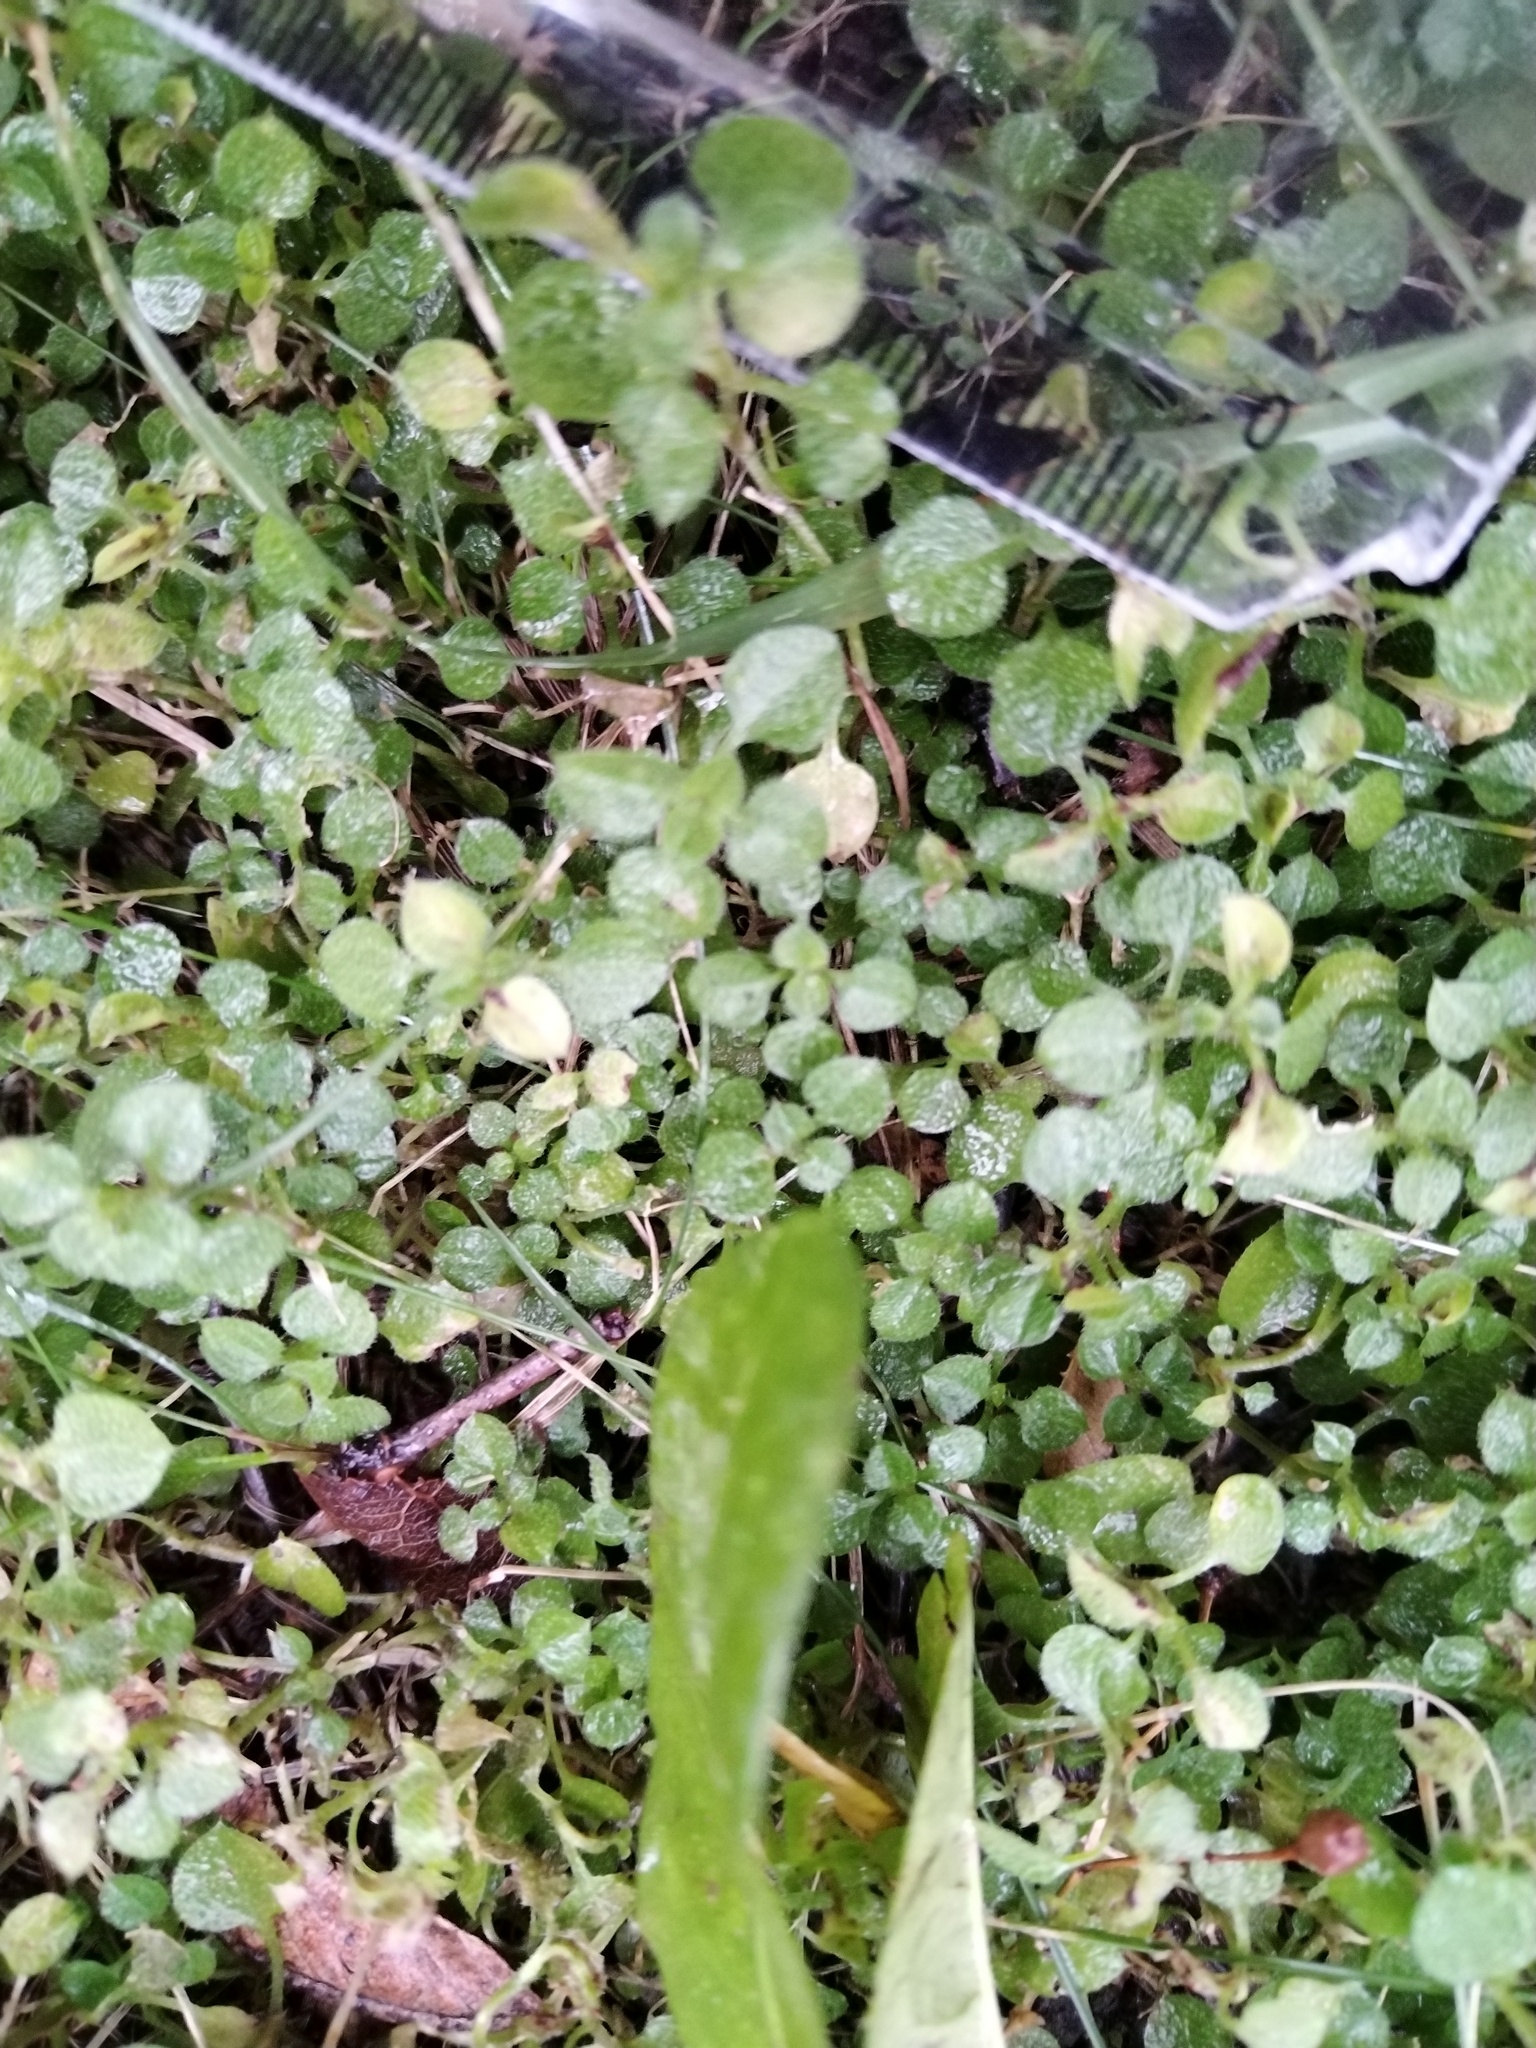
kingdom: Plantae
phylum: Tracheophyta
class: Magnoliopsida
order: Caryophyllales
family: Caryophyllaceae
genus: Moehringia
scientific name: Moehringia trinervia
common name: Three-nerved sandwort
